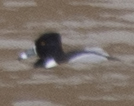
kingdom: Animalia
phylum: Chordata
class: Aves
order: Anseriformes
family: Anatidae
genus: Aythya
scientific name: Aythya collaris
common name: Ring-necked duck
